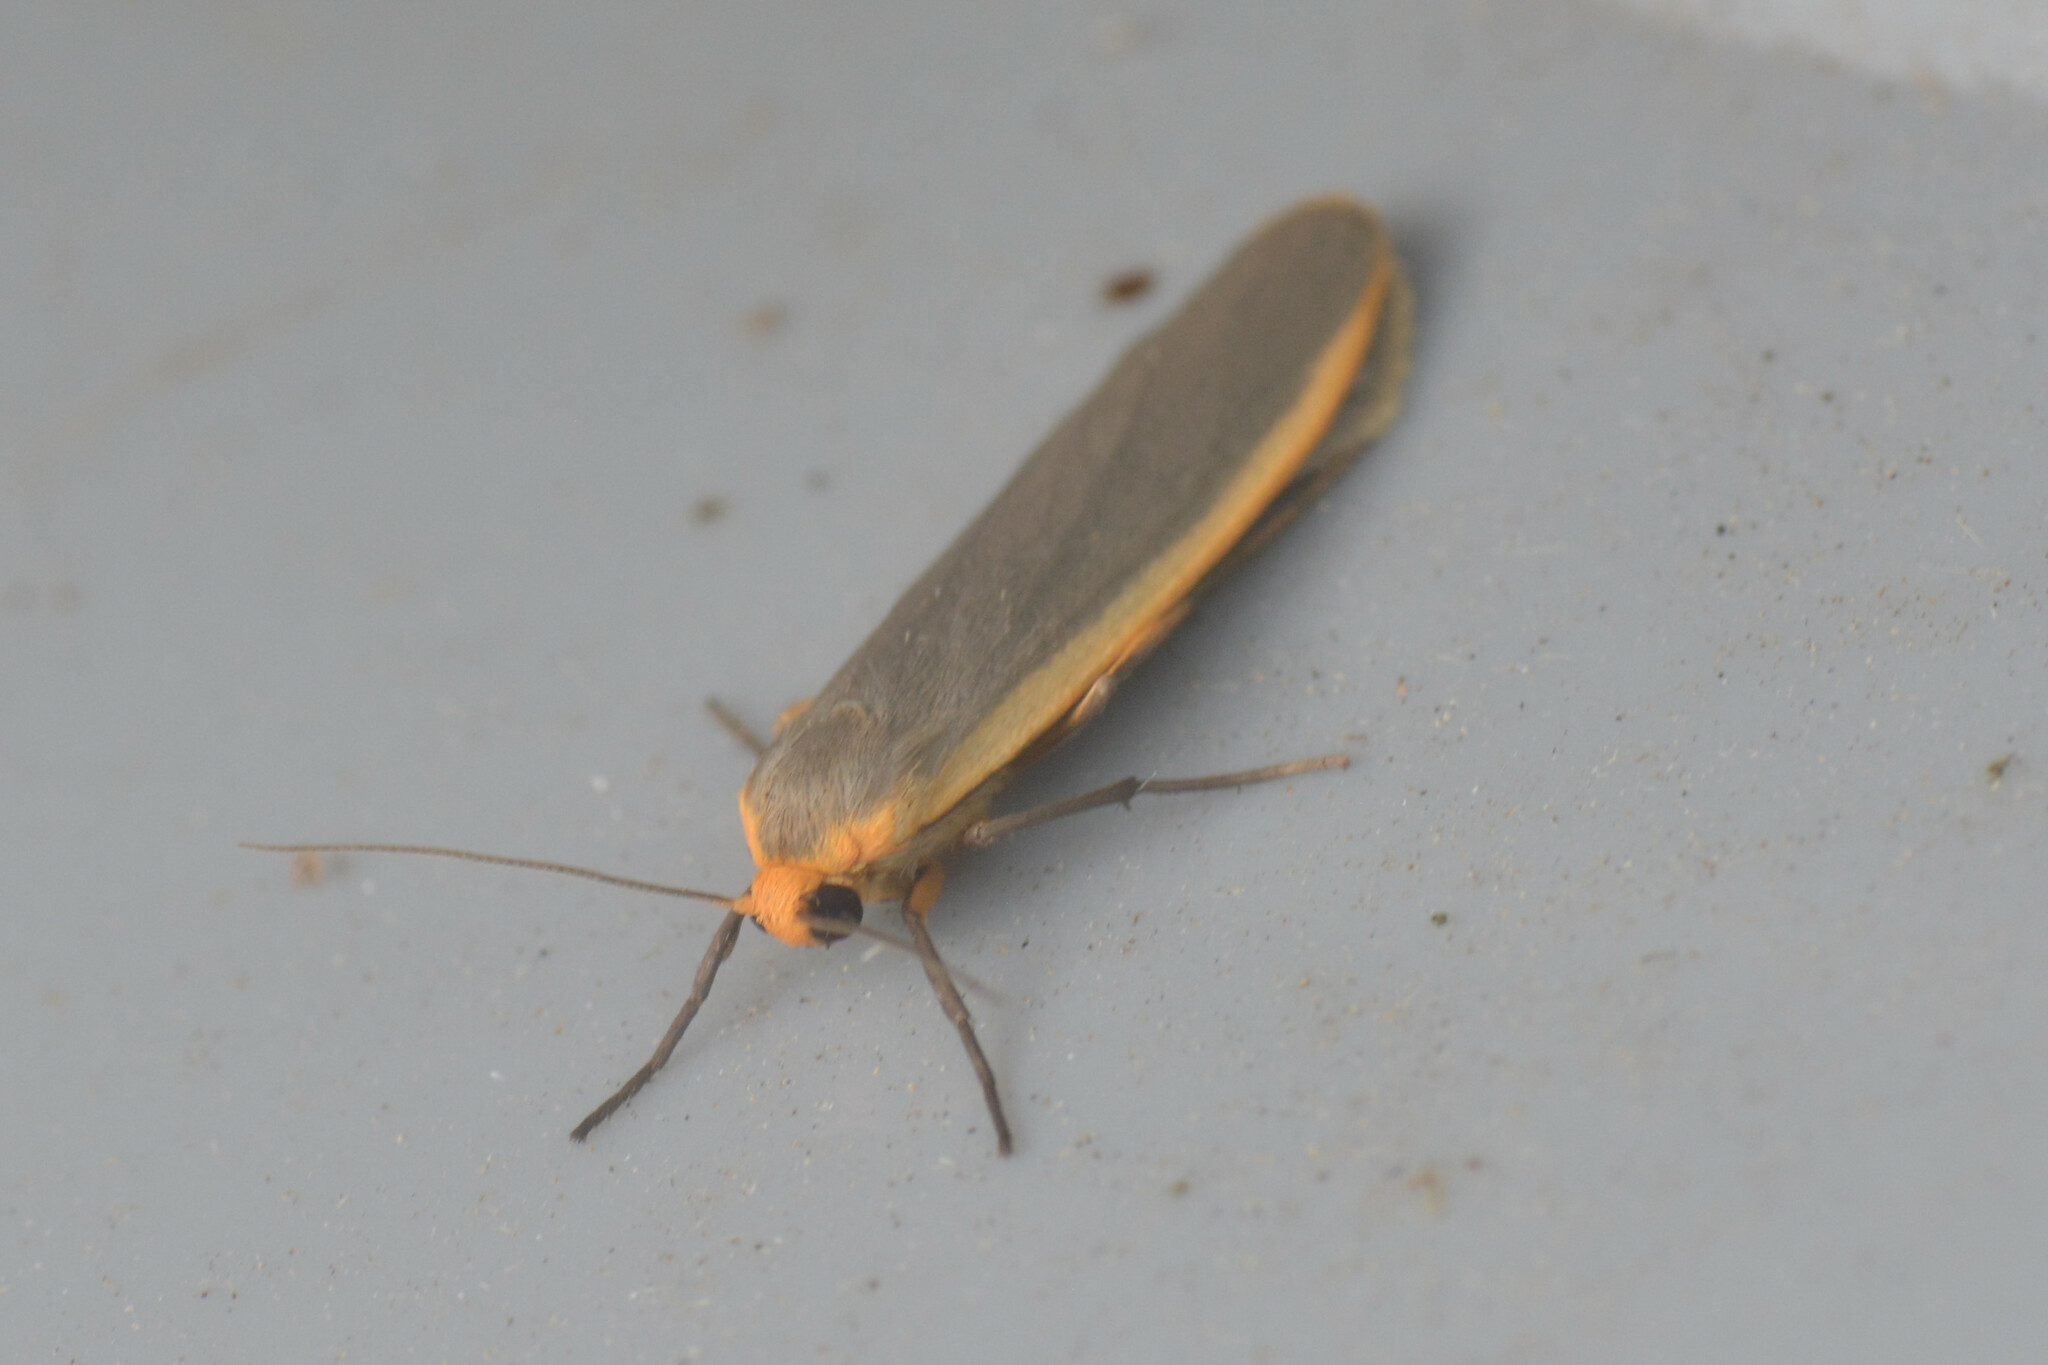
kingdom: Animalia
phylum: Arthropoda
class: Insecta
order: Lepidoptera
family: Erebidae
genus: Nyea
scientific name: Nyea lurideola
